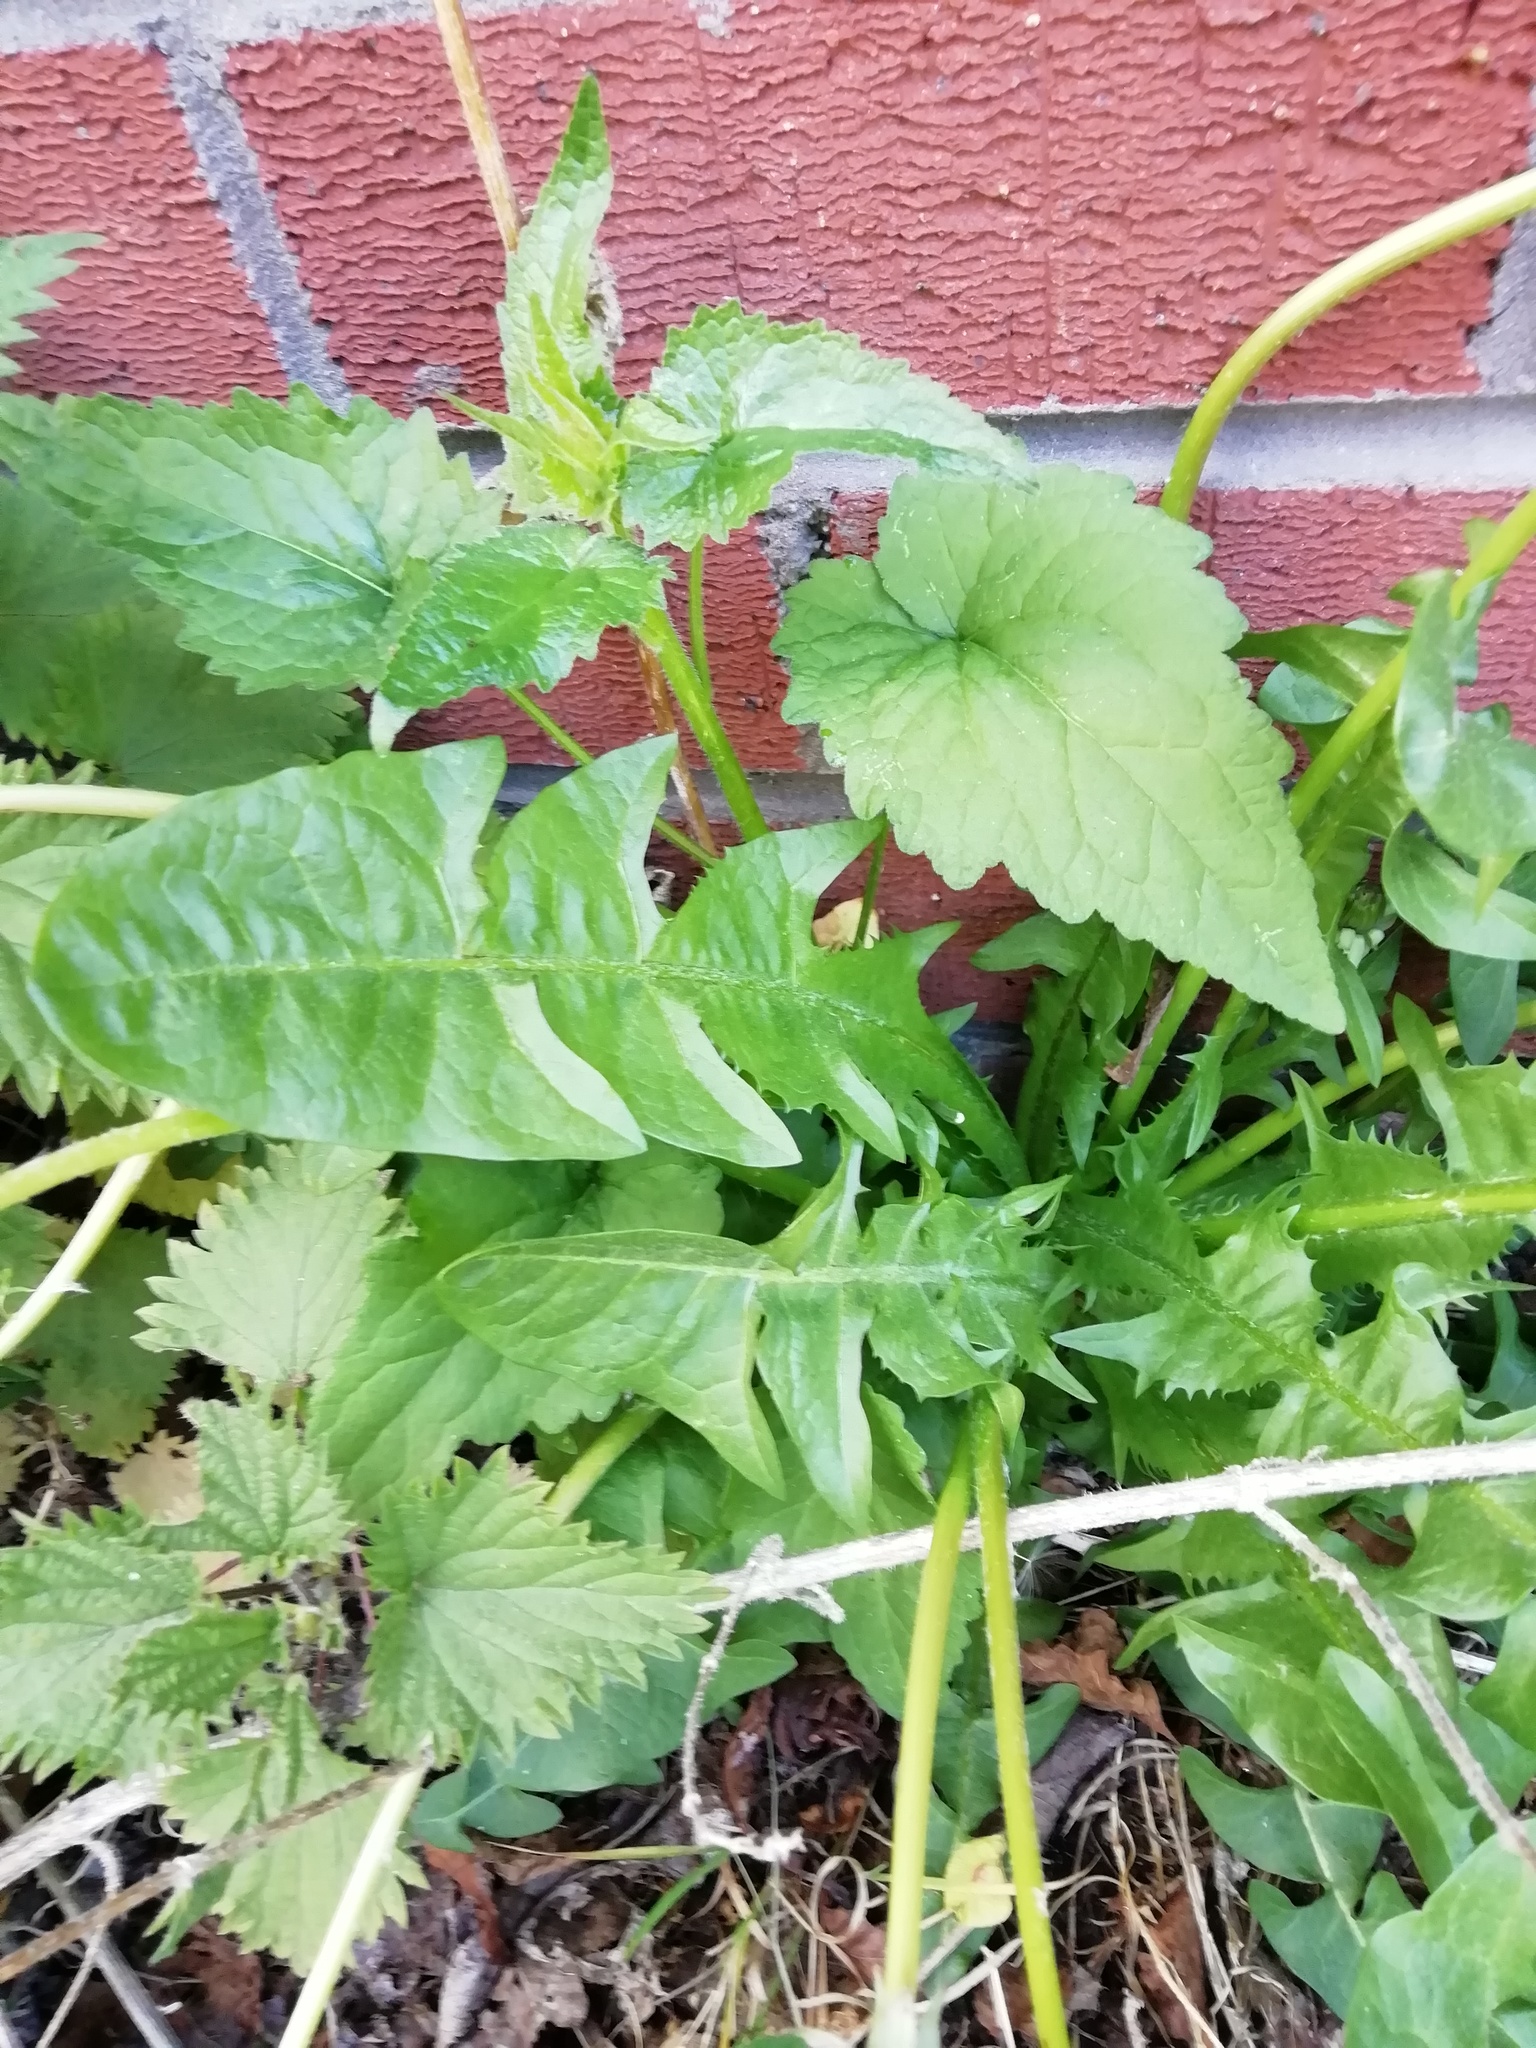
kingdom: Plantae
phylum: Tracheophyta
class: Magnoliopsida
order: Asterales
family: Asteraceae
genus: Taraxacum
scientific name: Taraxacum officinale
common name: Common dandelion
